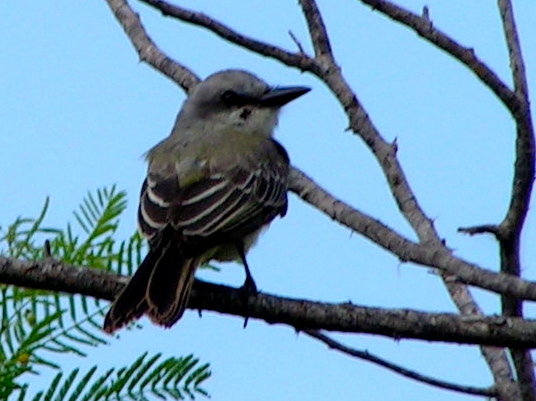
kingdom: Animalia
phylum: Chordata
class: Aves
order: Passeriformes
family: Tyrannidae
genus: Tyrannus
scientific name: Tyrannus melancholicus
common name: Tropical kingbird
